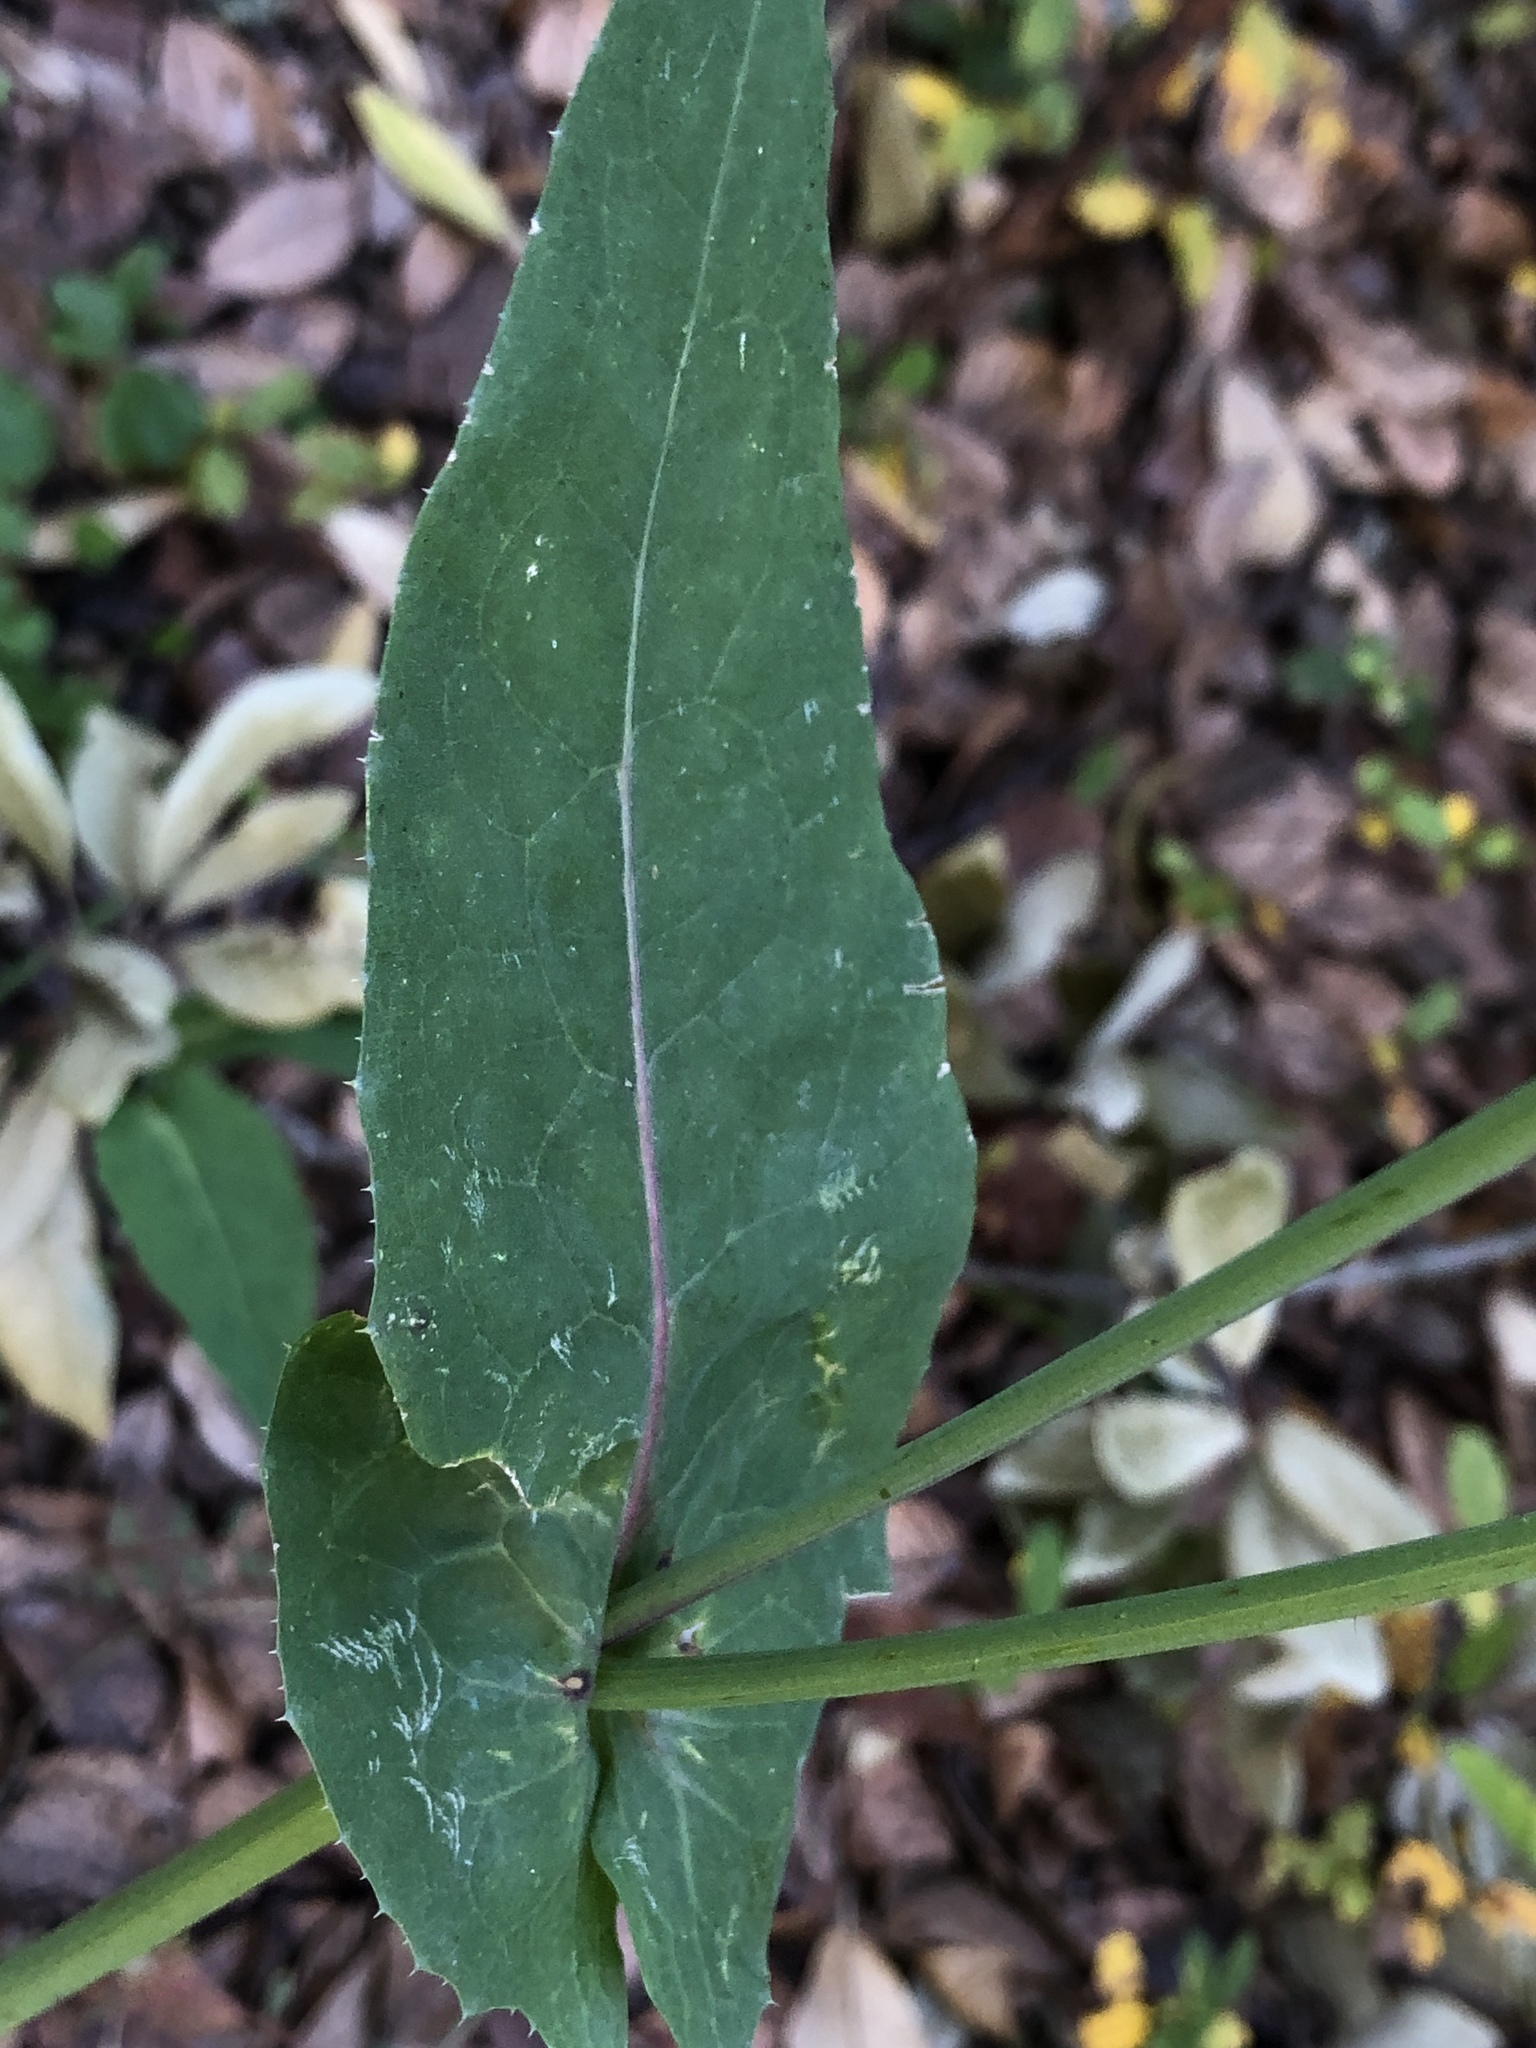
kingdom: Plantae
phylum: Tracheophyta
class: Magnoliopsida
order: Asterales
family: Asteraceae
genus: Sonchus
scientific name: Sonchus oleraceus
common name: Common sowthistle
